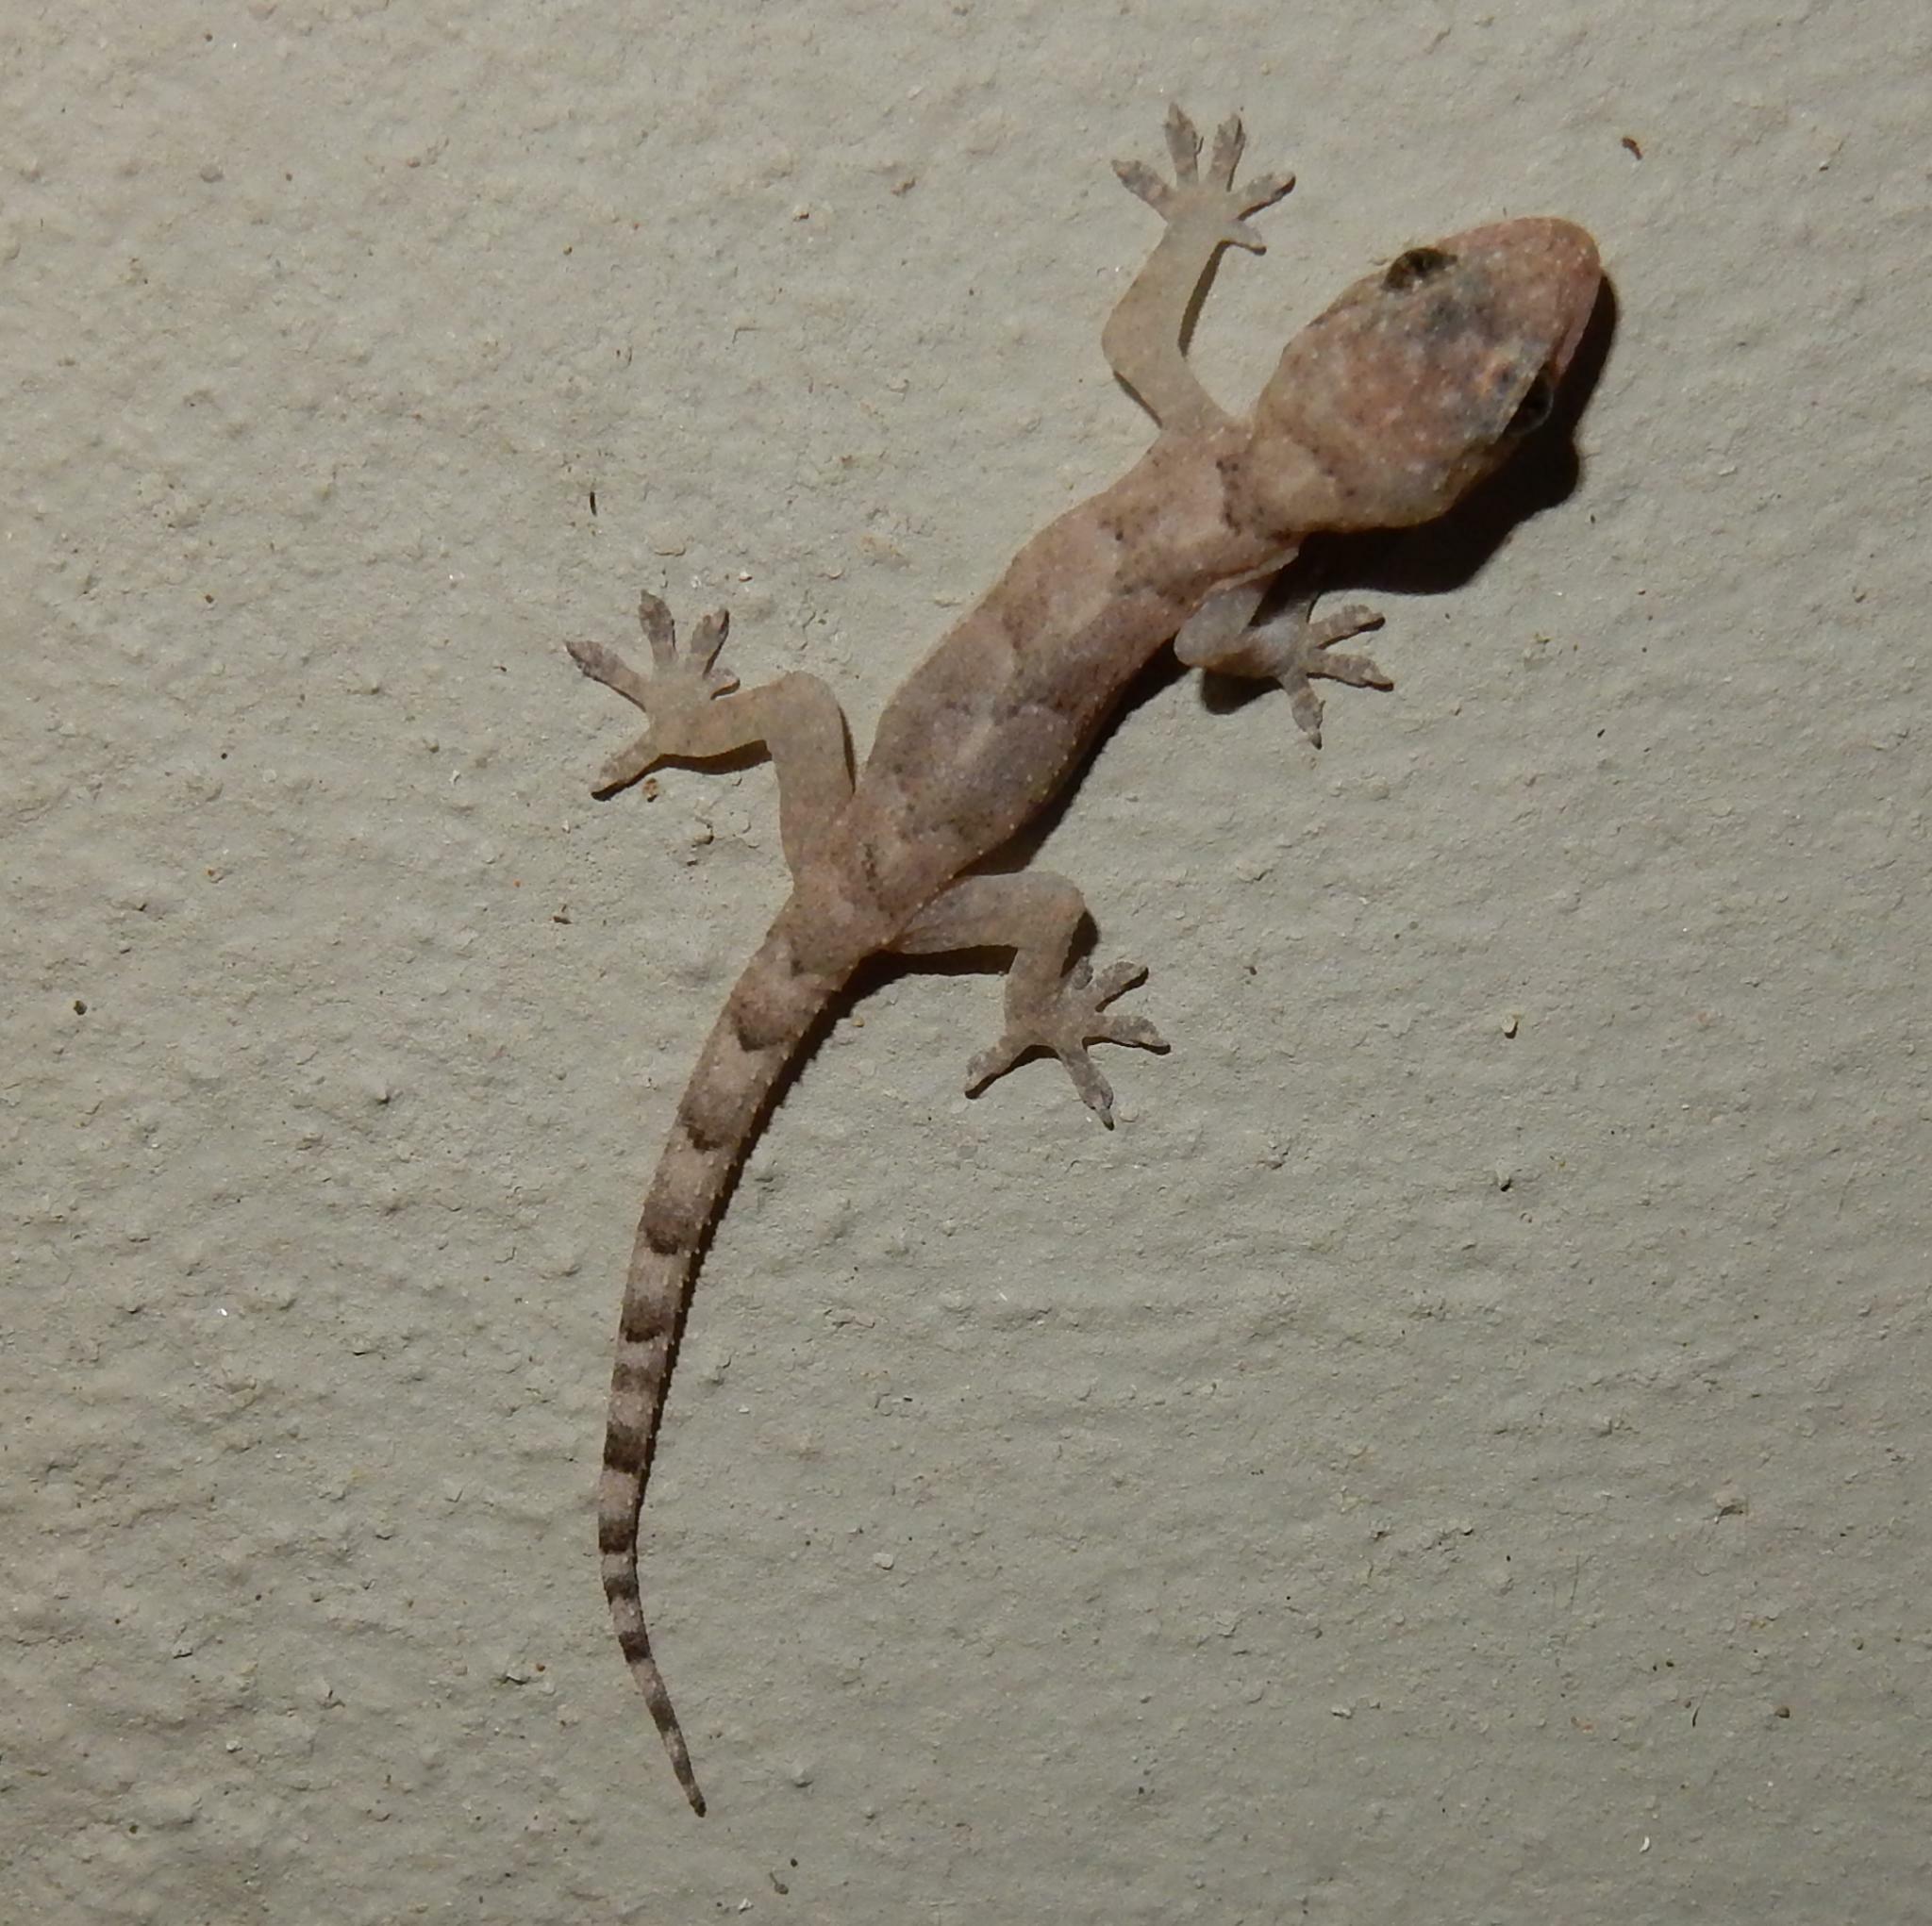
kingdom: Animalia
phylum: Chordata
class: Squamata
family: Gekkonidae
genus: Hemidactylus
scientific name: Hemidactylus mabouia
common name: House gecko
